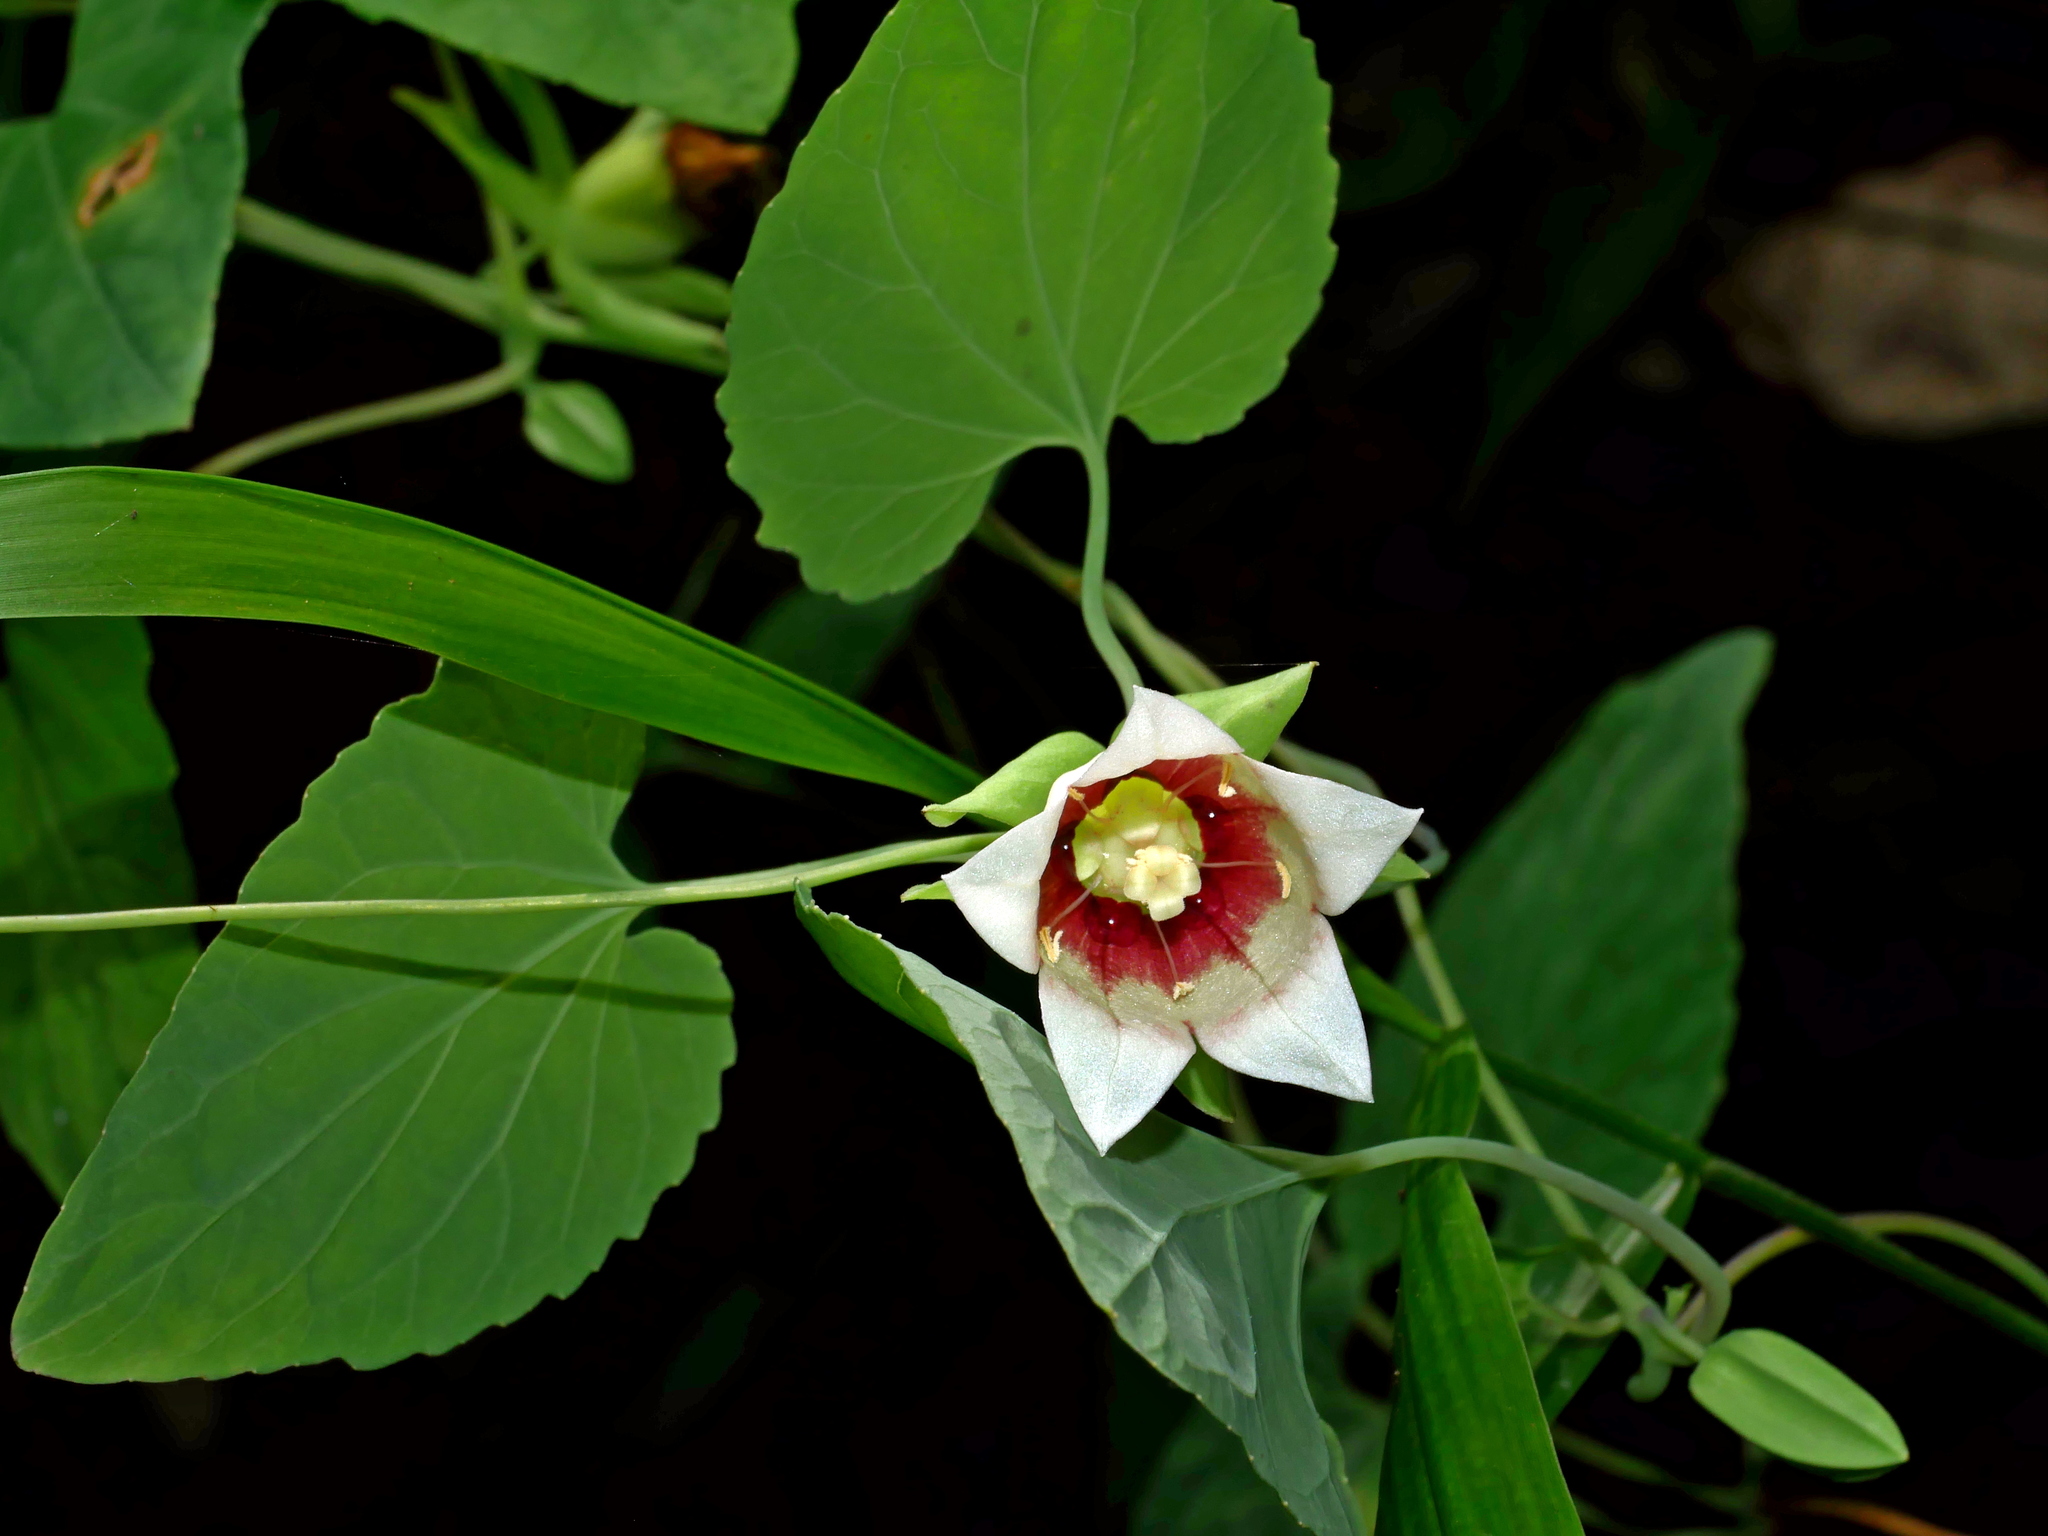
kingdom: Plantae
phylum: Tracheophyta
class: Magnoliopsida
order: Asterales
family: Campanulaceae
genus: Codonopsis
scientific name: Codonopsis javanica
